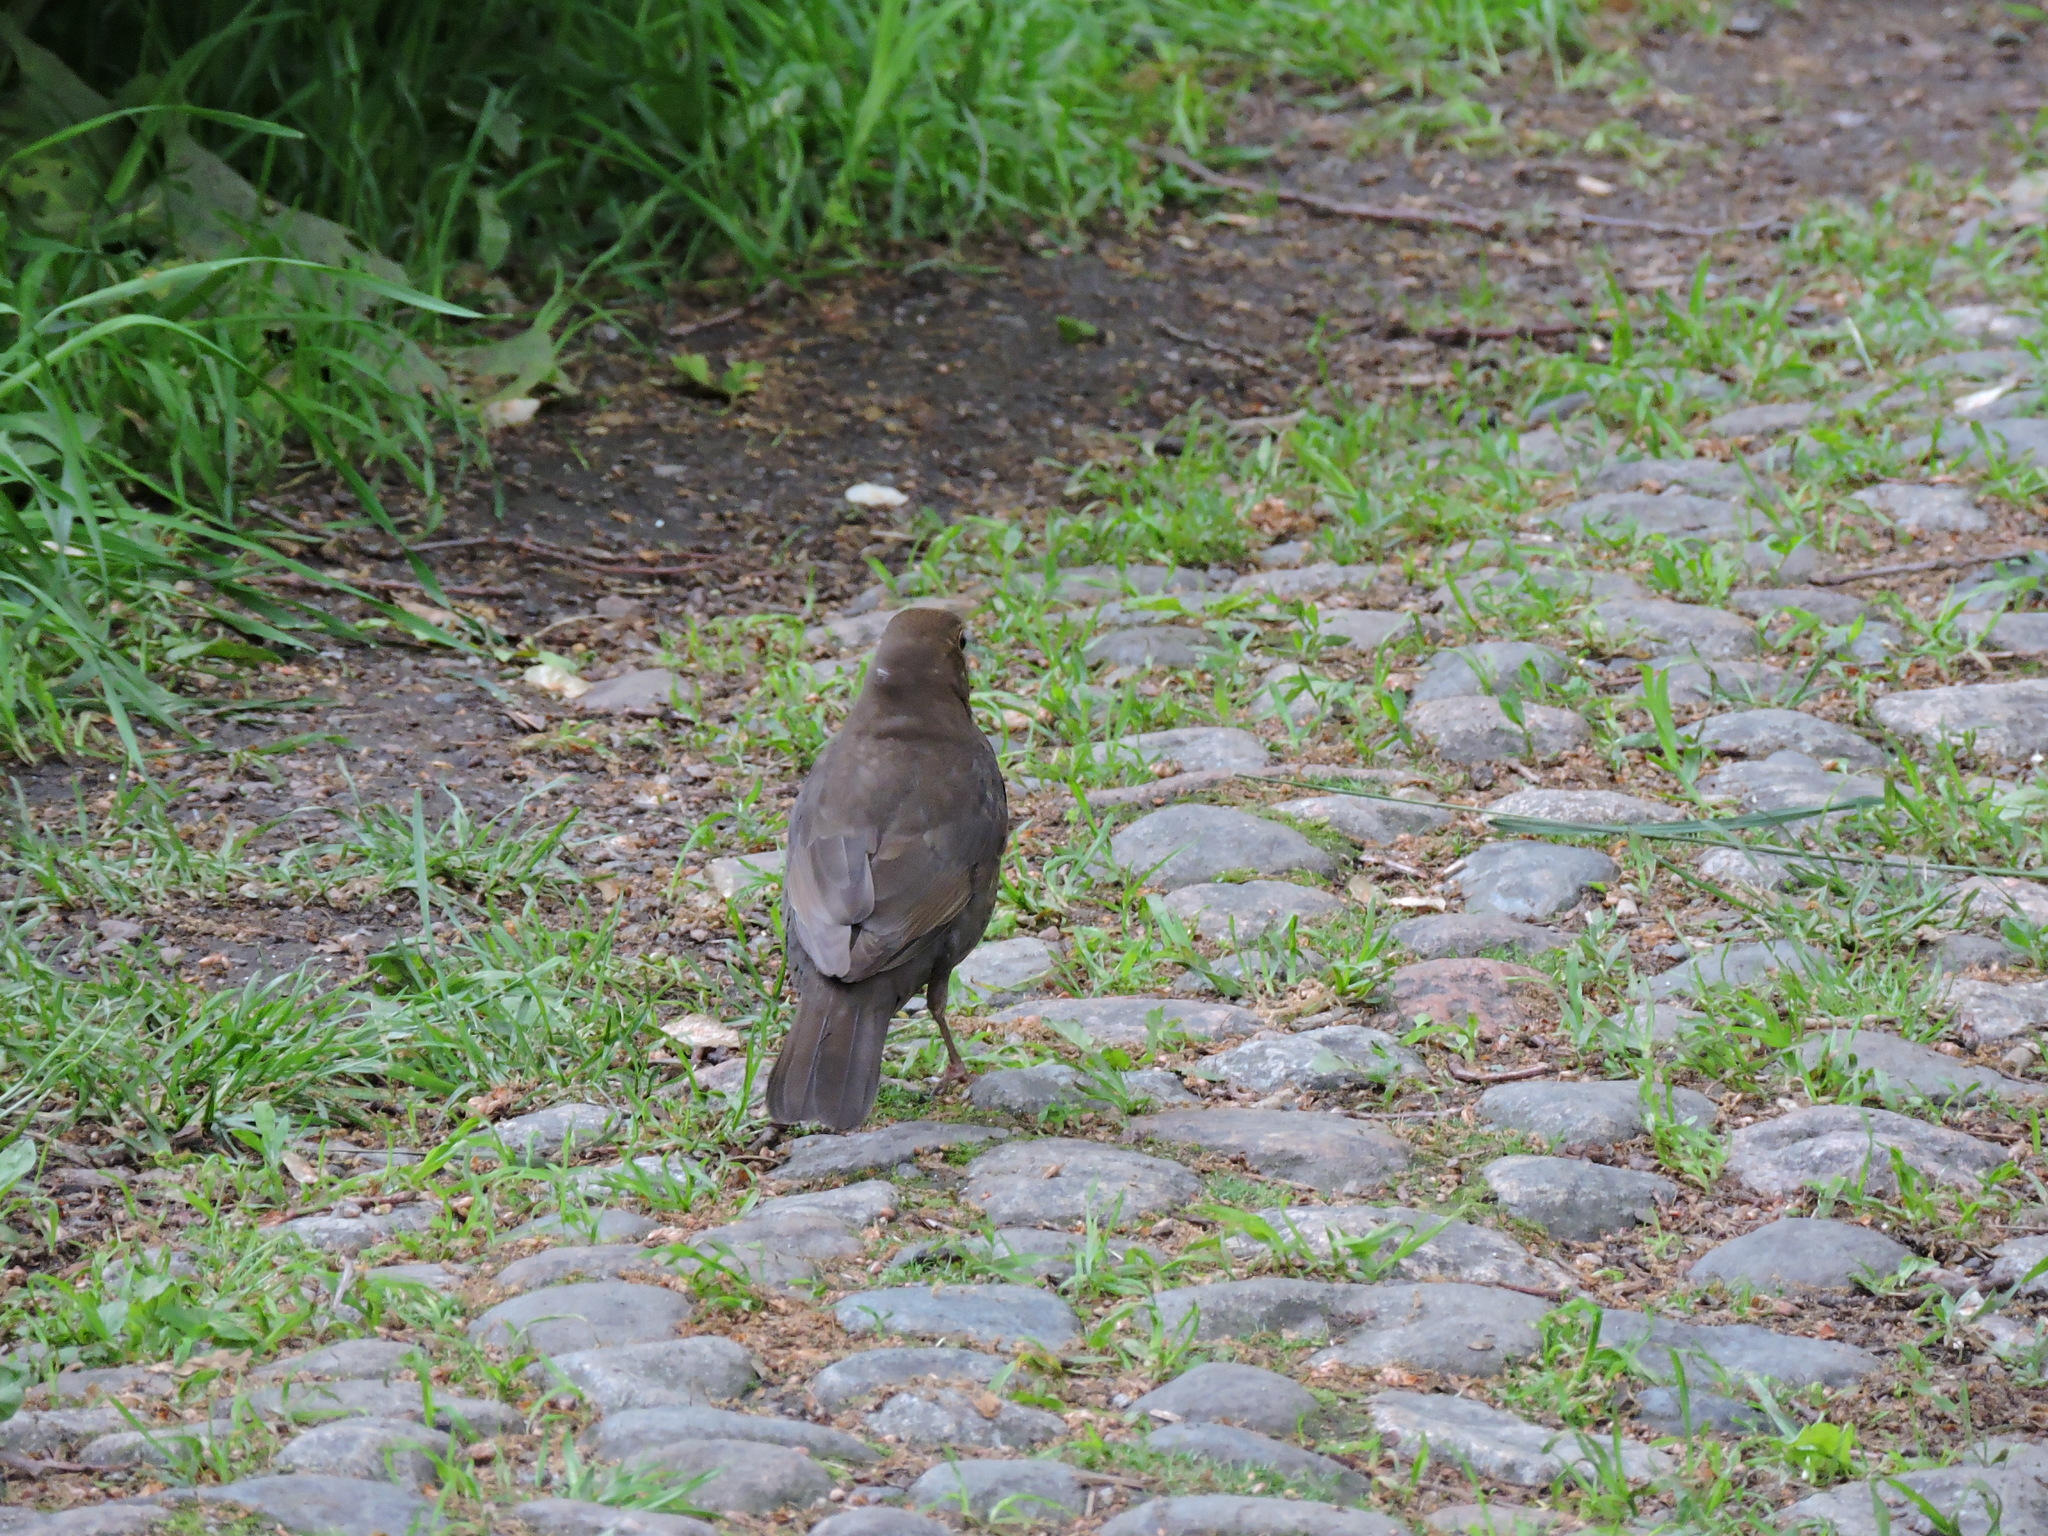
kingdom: Animalia
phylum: Chordata
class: Aves
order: Passeriformes
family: Turdidae
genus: Turdus
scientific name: Turdus merula
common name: Common blackbird
